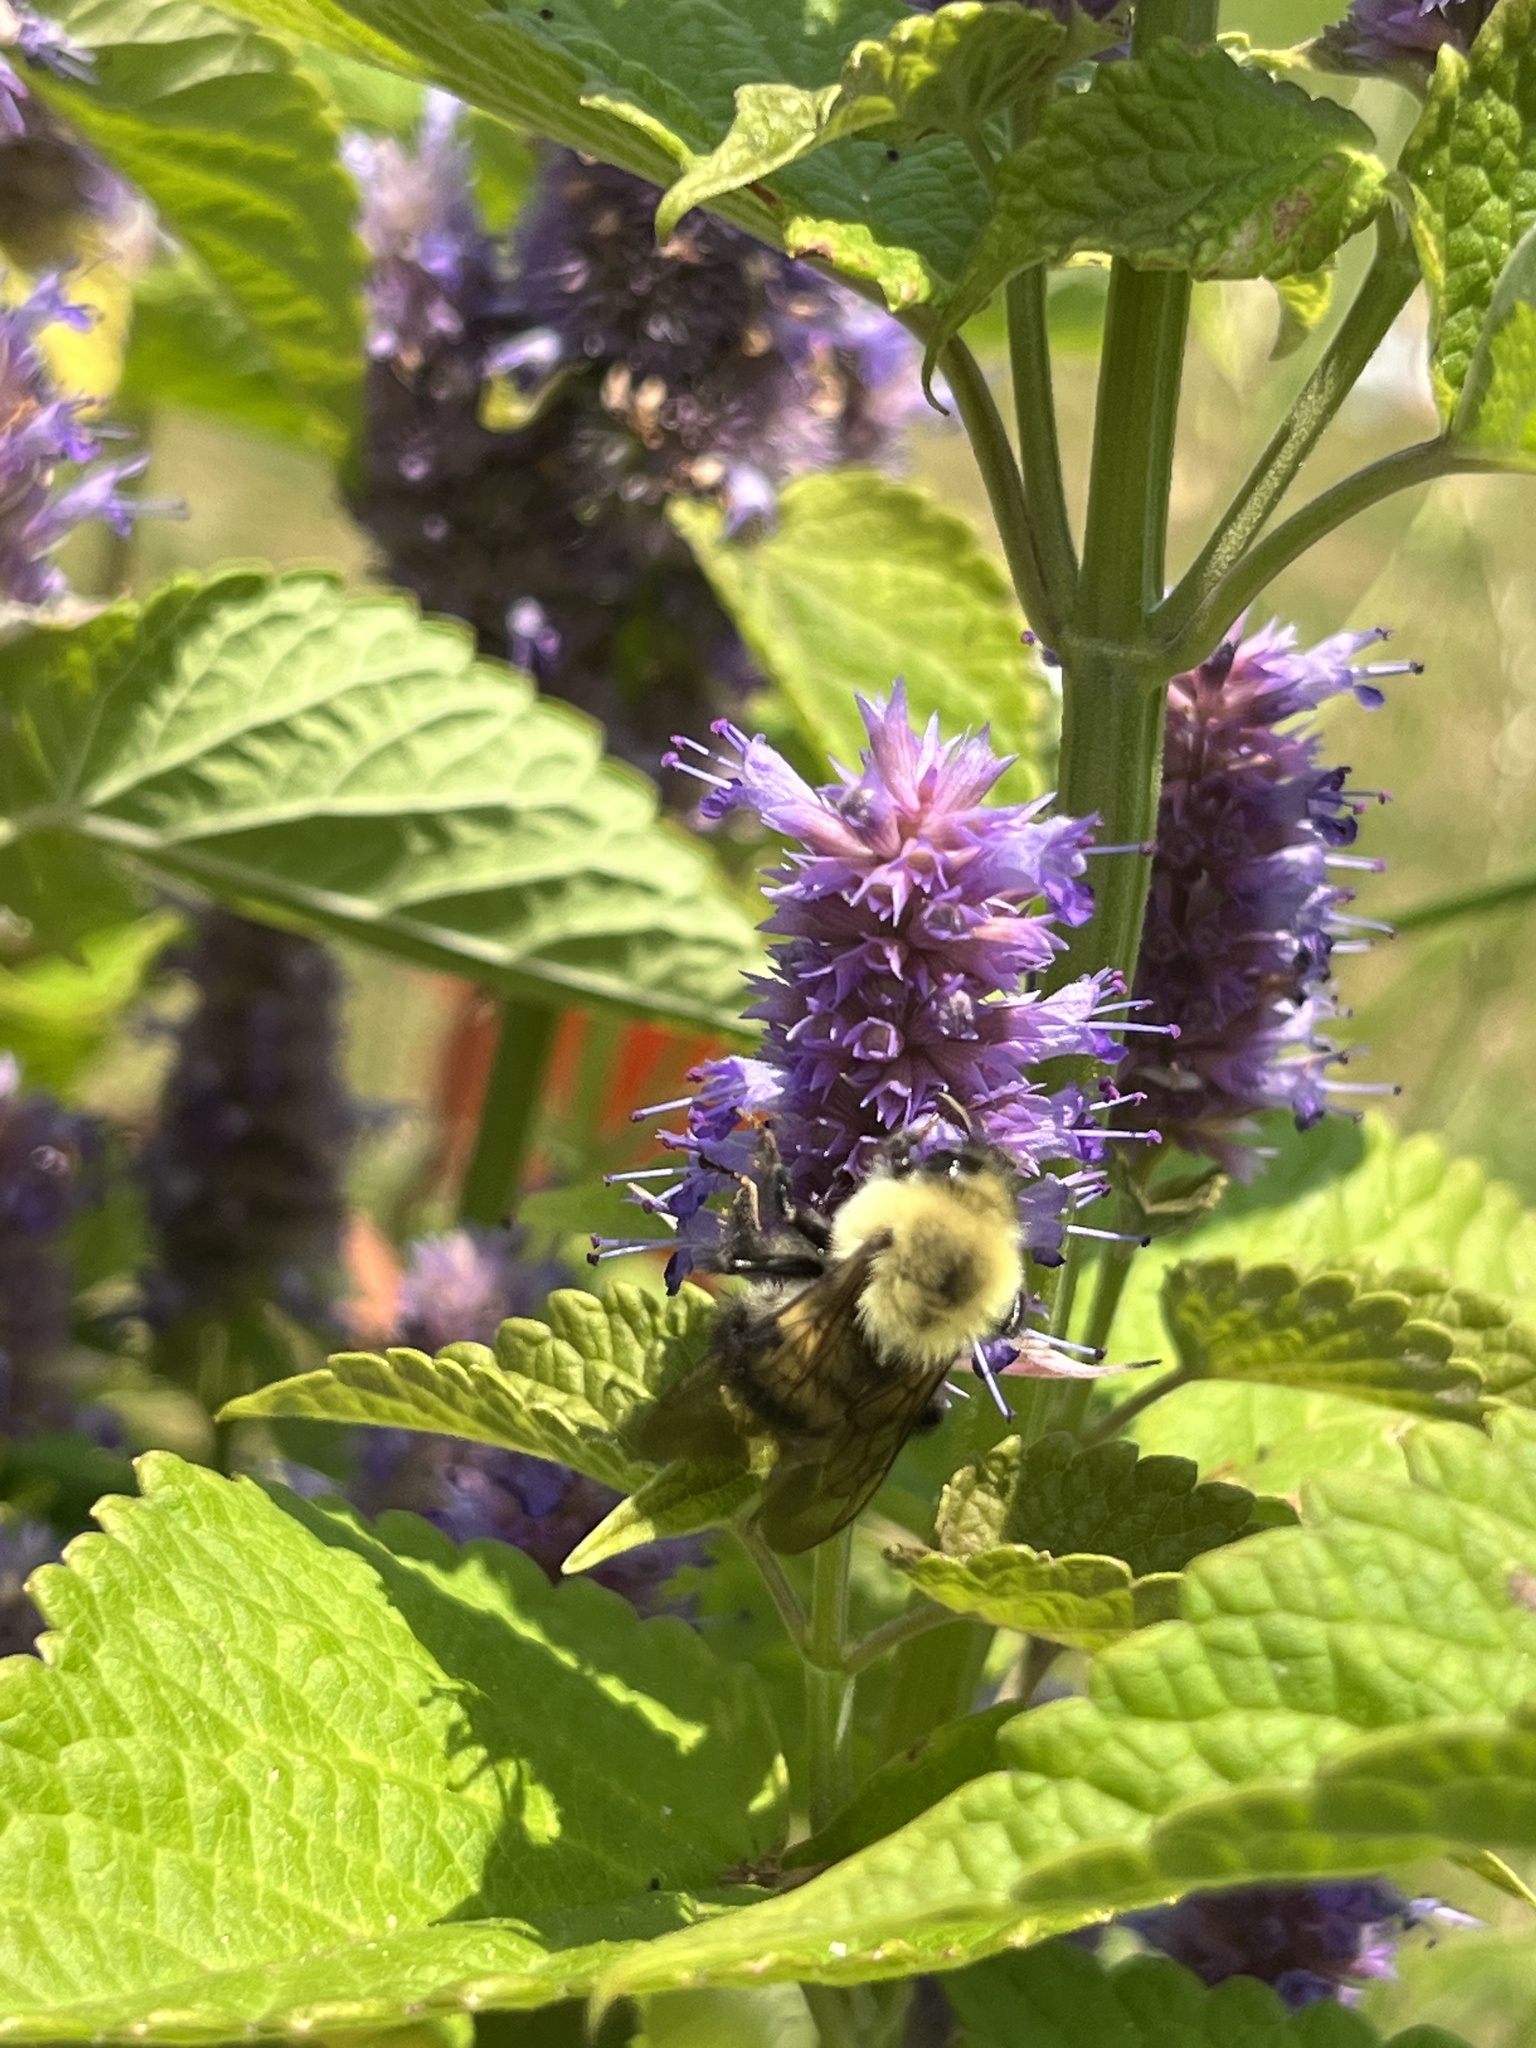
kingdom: Animalia
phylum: Arthropoda
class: Insecta
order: Hymenoptera
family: Apidae
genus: Bombus
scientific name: Bombus bimaculatus
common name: Two-spotted bumble bee
